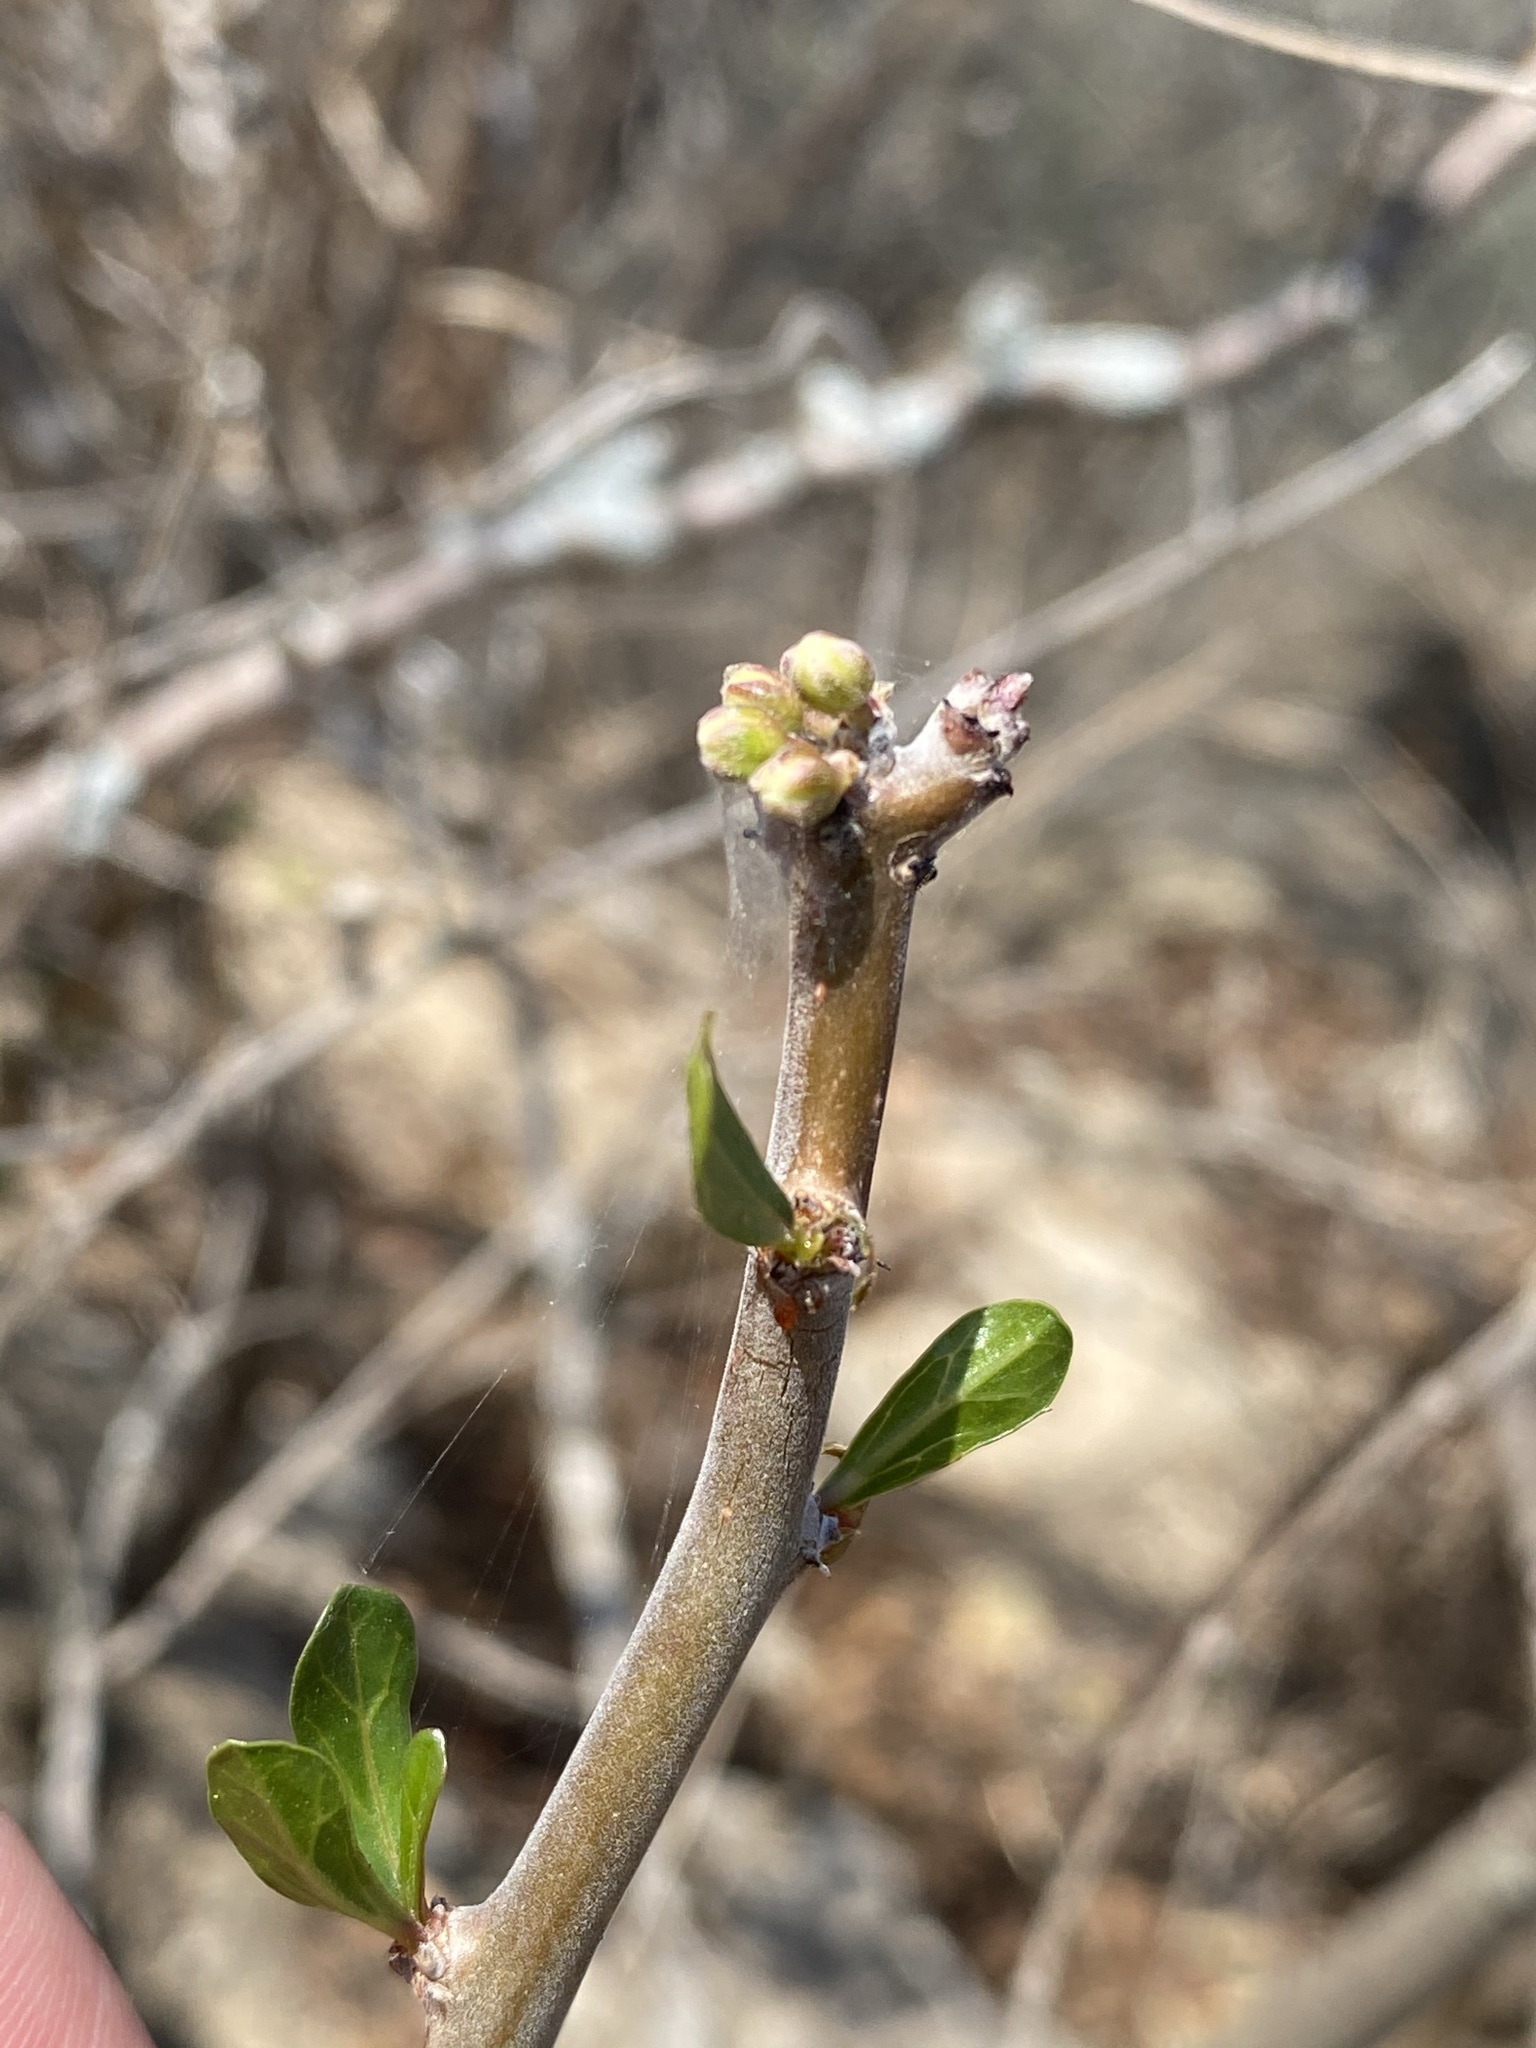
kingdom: Plantae
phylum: Tracheophyta
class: Magnoliopsida
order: Malpighiales
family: Euphorbiaceae
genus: Jatropha
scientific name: Jatropha dioica
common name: Leatherstem
